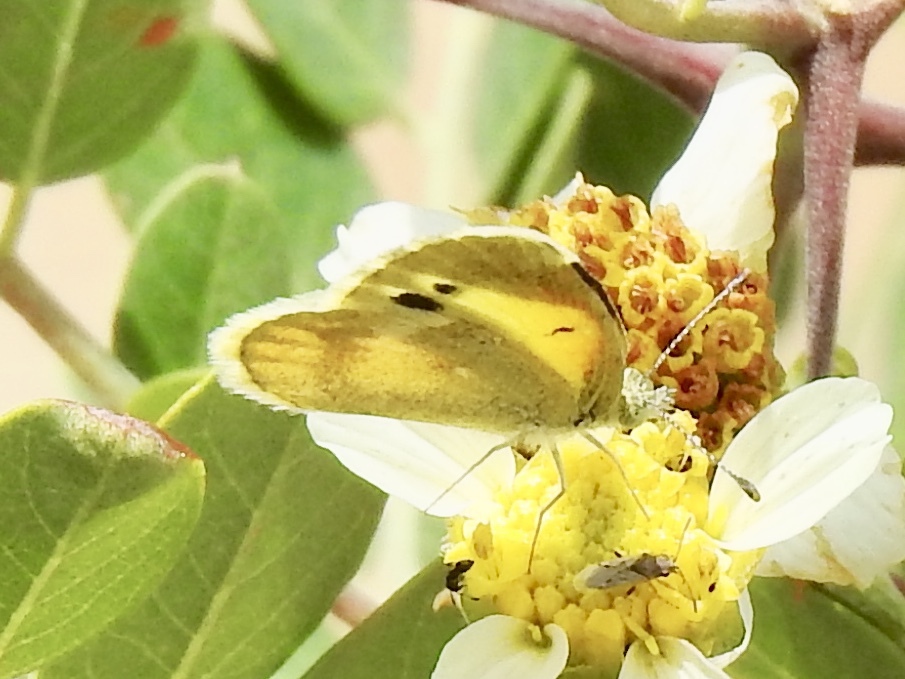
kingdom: Animalia
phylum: Arthropoda
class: Insecta
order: Lepidoptera
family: Pieridae
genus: Nathalis
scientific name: Nathalis iole
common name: Dainty sulphur
